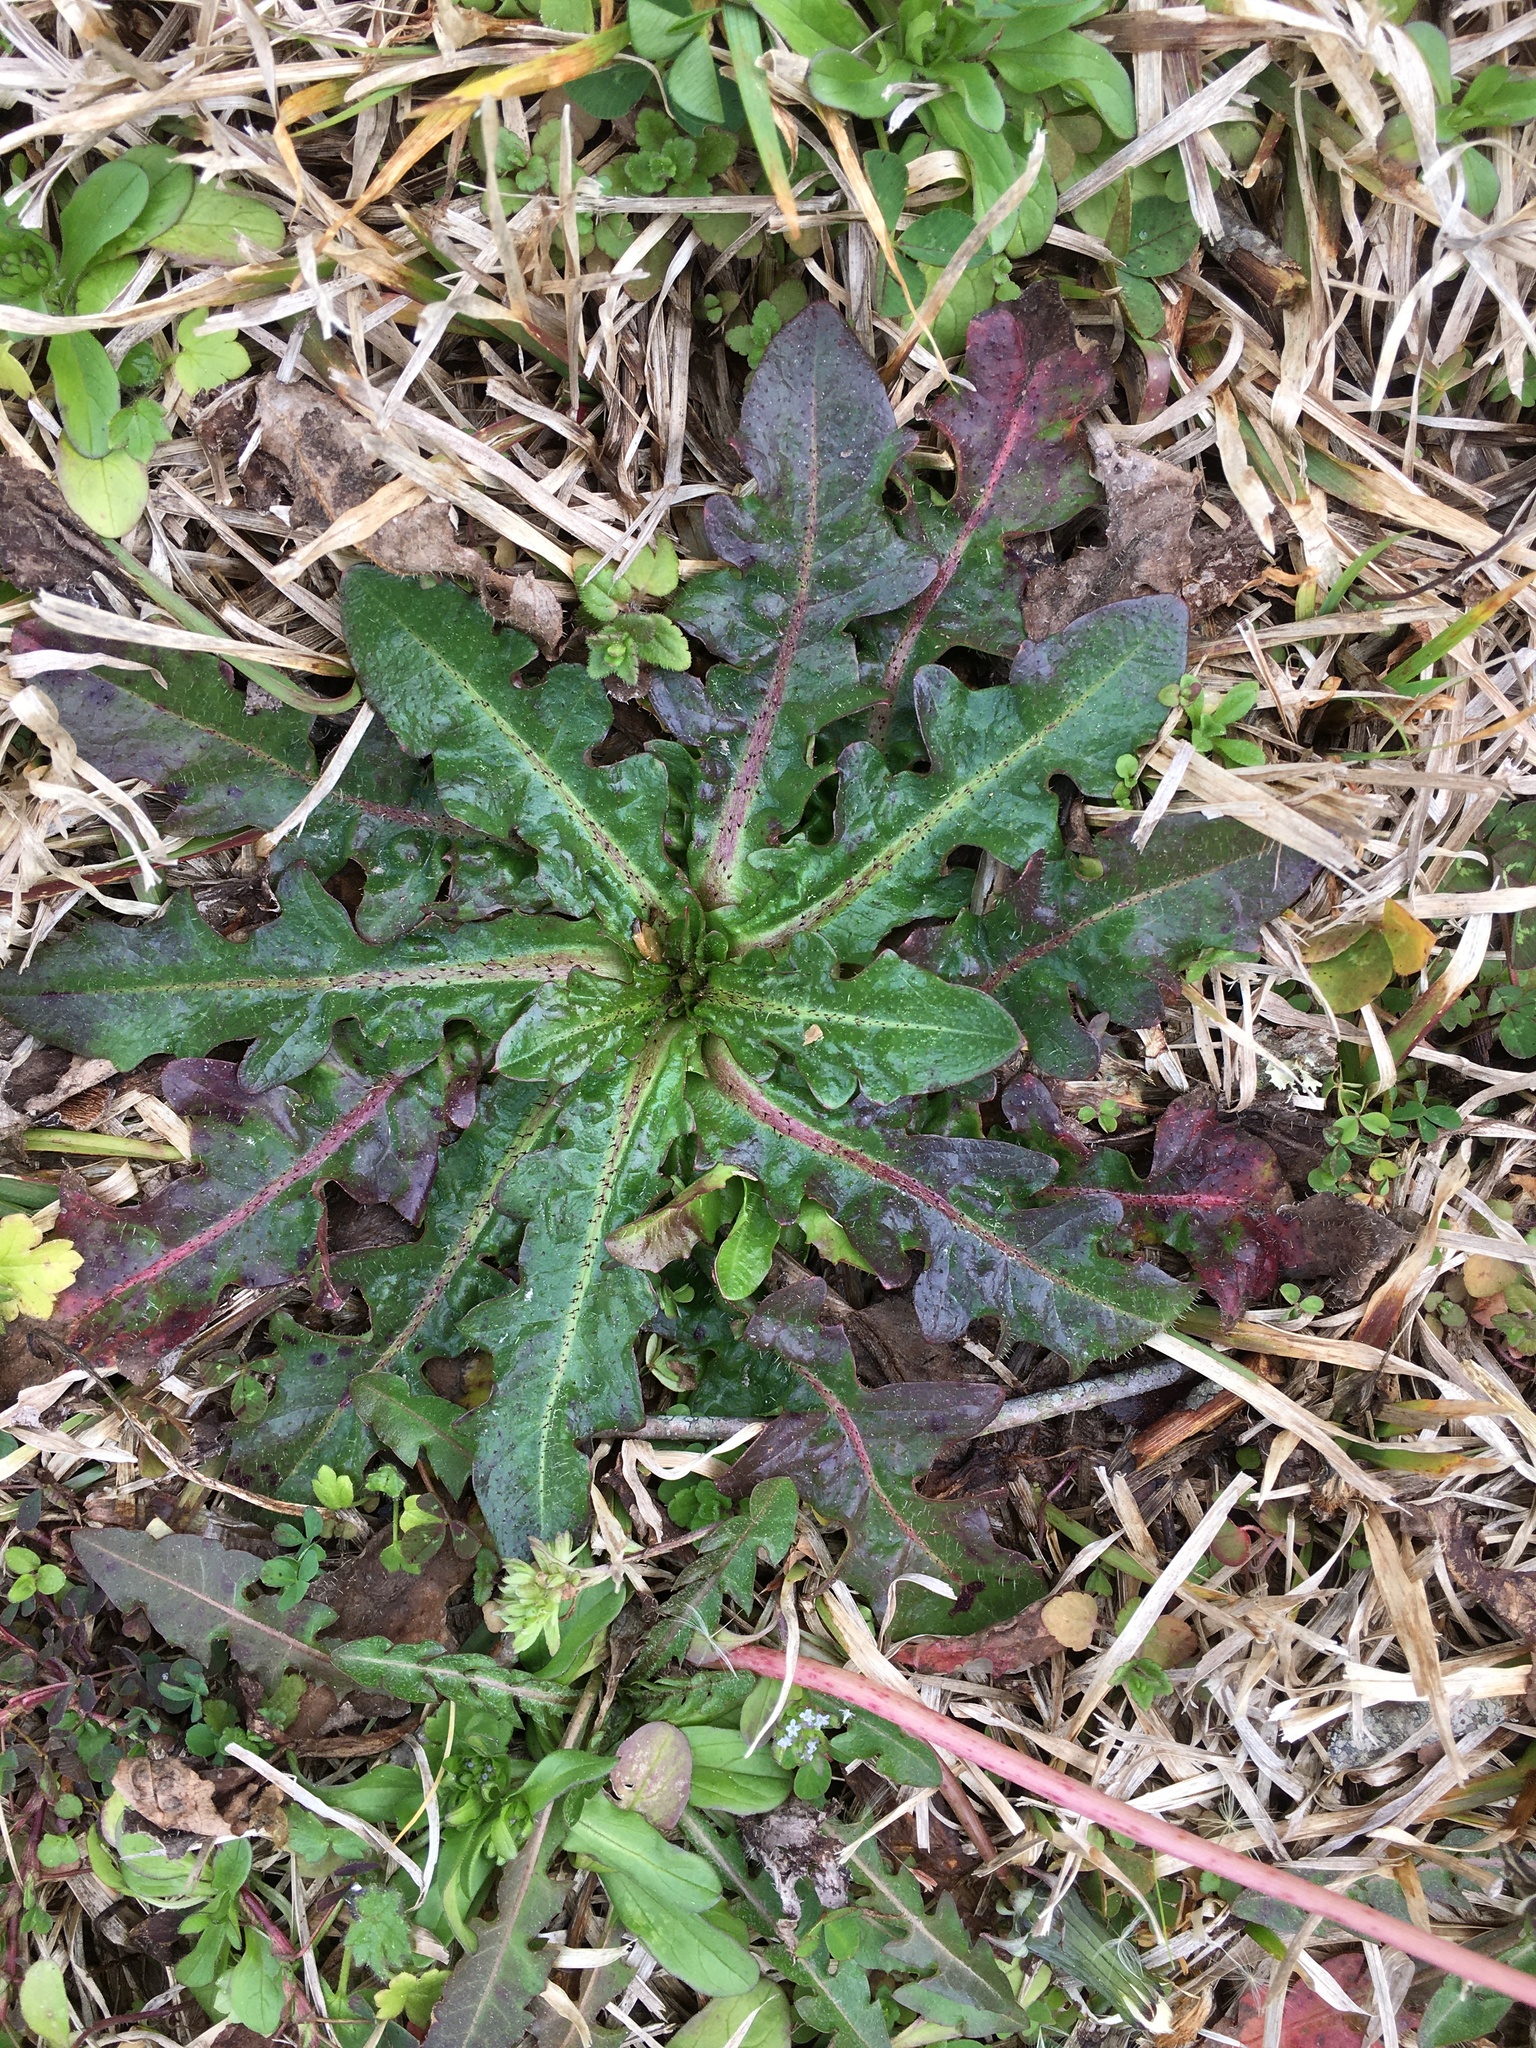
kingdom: Plantae
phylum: Tracheophyta
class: Magnoliopsida
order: Asterales
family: Asteraceae
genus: Hypochaeris
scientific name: Hypochaeris radicata
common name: Flatweed
